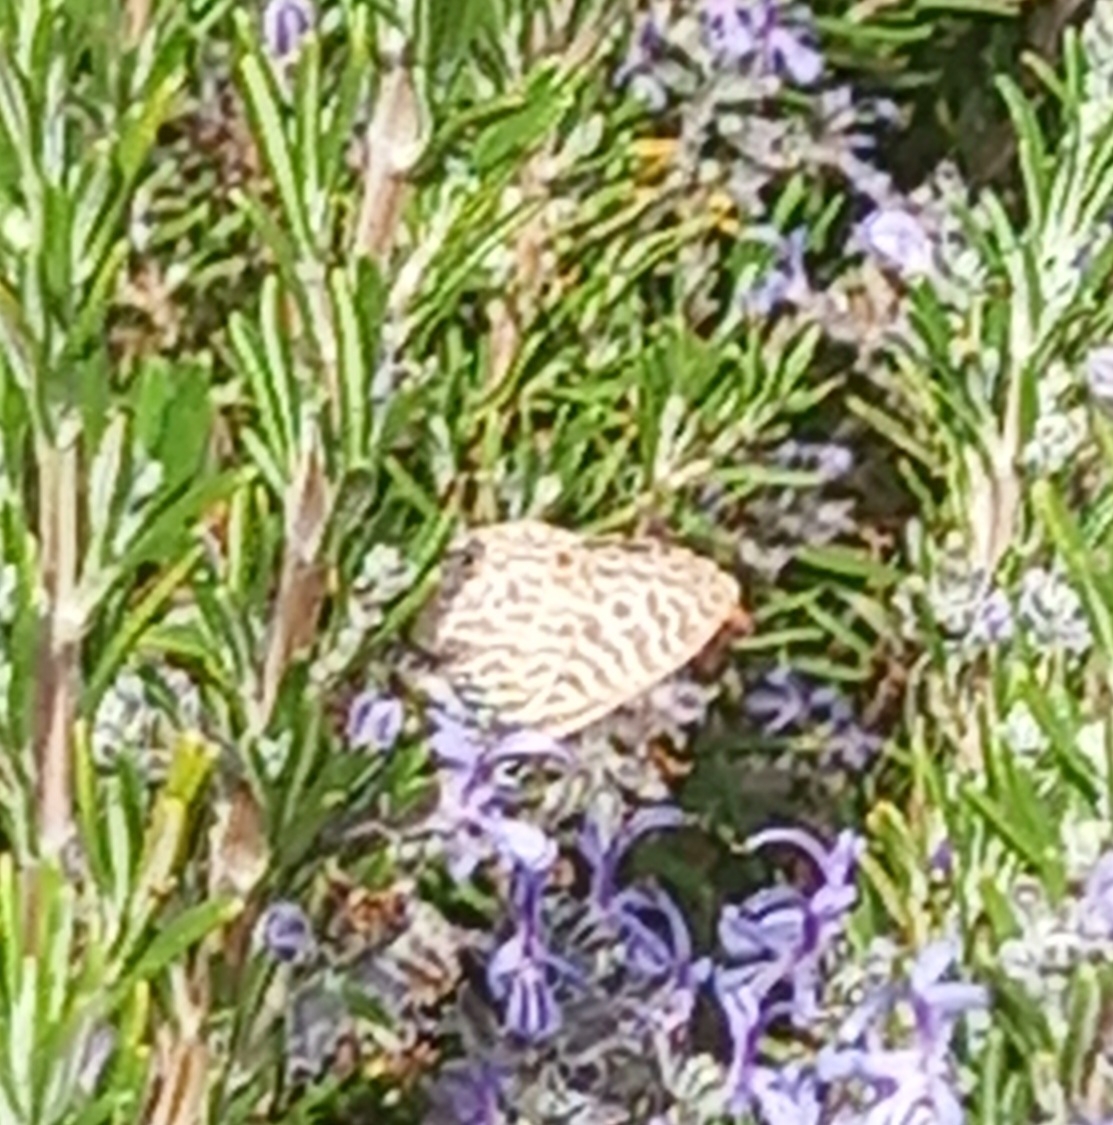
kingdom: Animalia
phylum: Arthropoda
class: Insecta
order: Lepidoptera
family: Lycaenidae
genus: Leptotes
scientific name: Leptotes pirithous
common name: Lang's short-tailed blue
